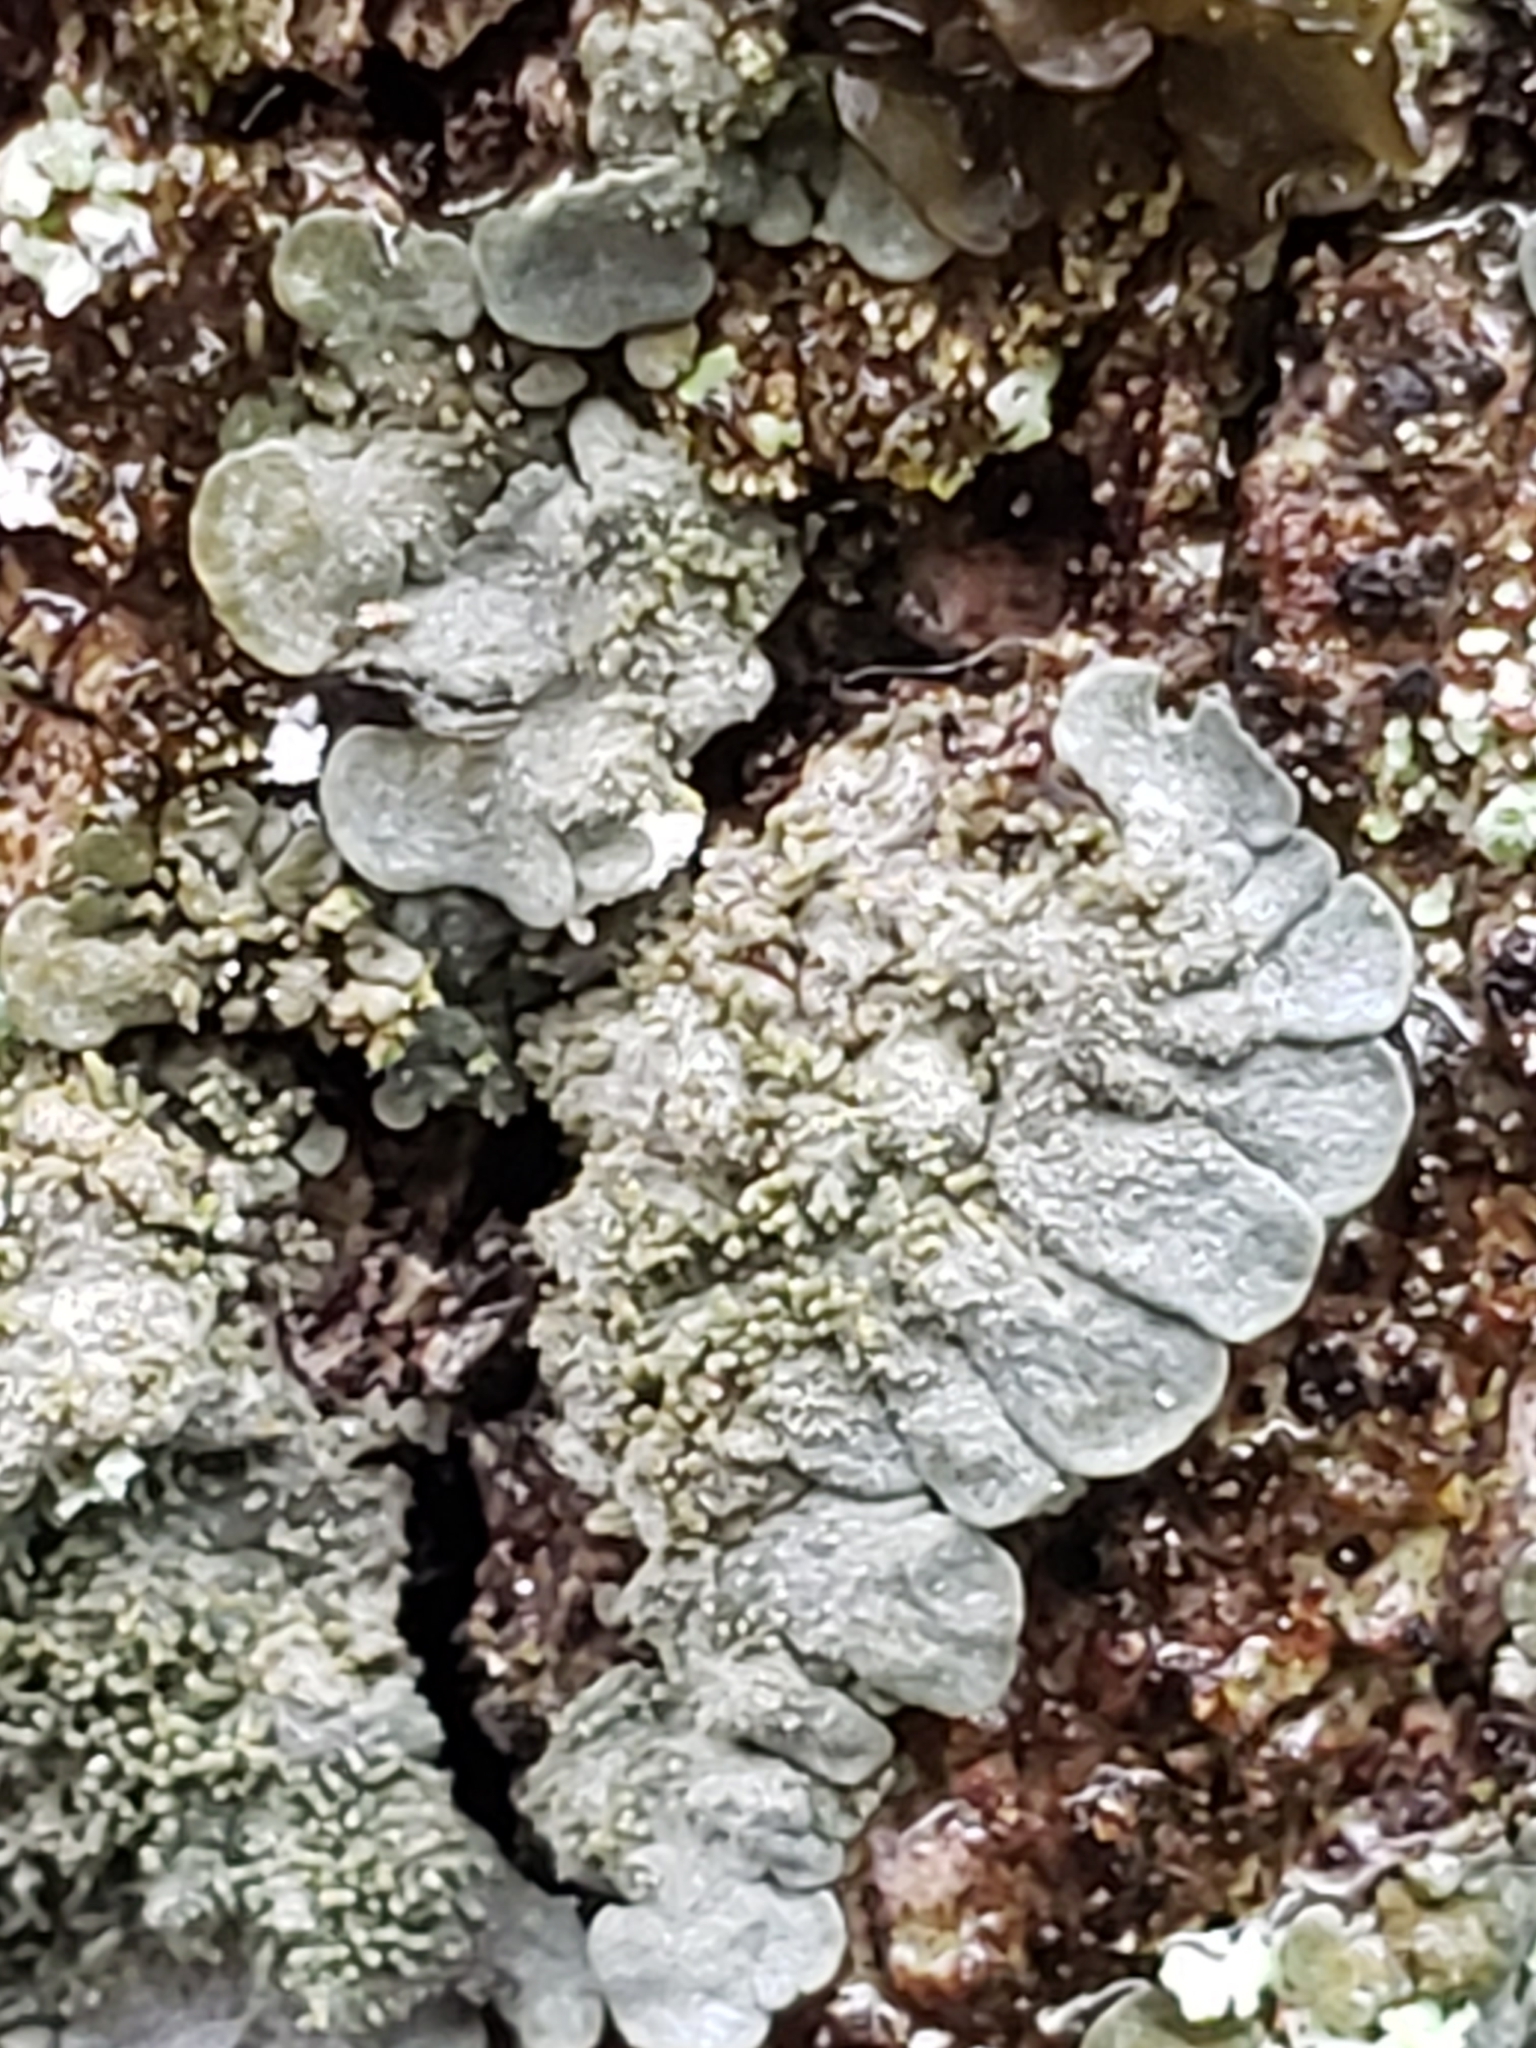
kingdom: Fungi
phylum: Ascomycota
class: Lecanoromycetes
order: Peltigerales
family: Coccocarpiaceae
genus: Coccocarpia
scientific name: Coccocarpia palmicola
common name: Salted shell lichen
